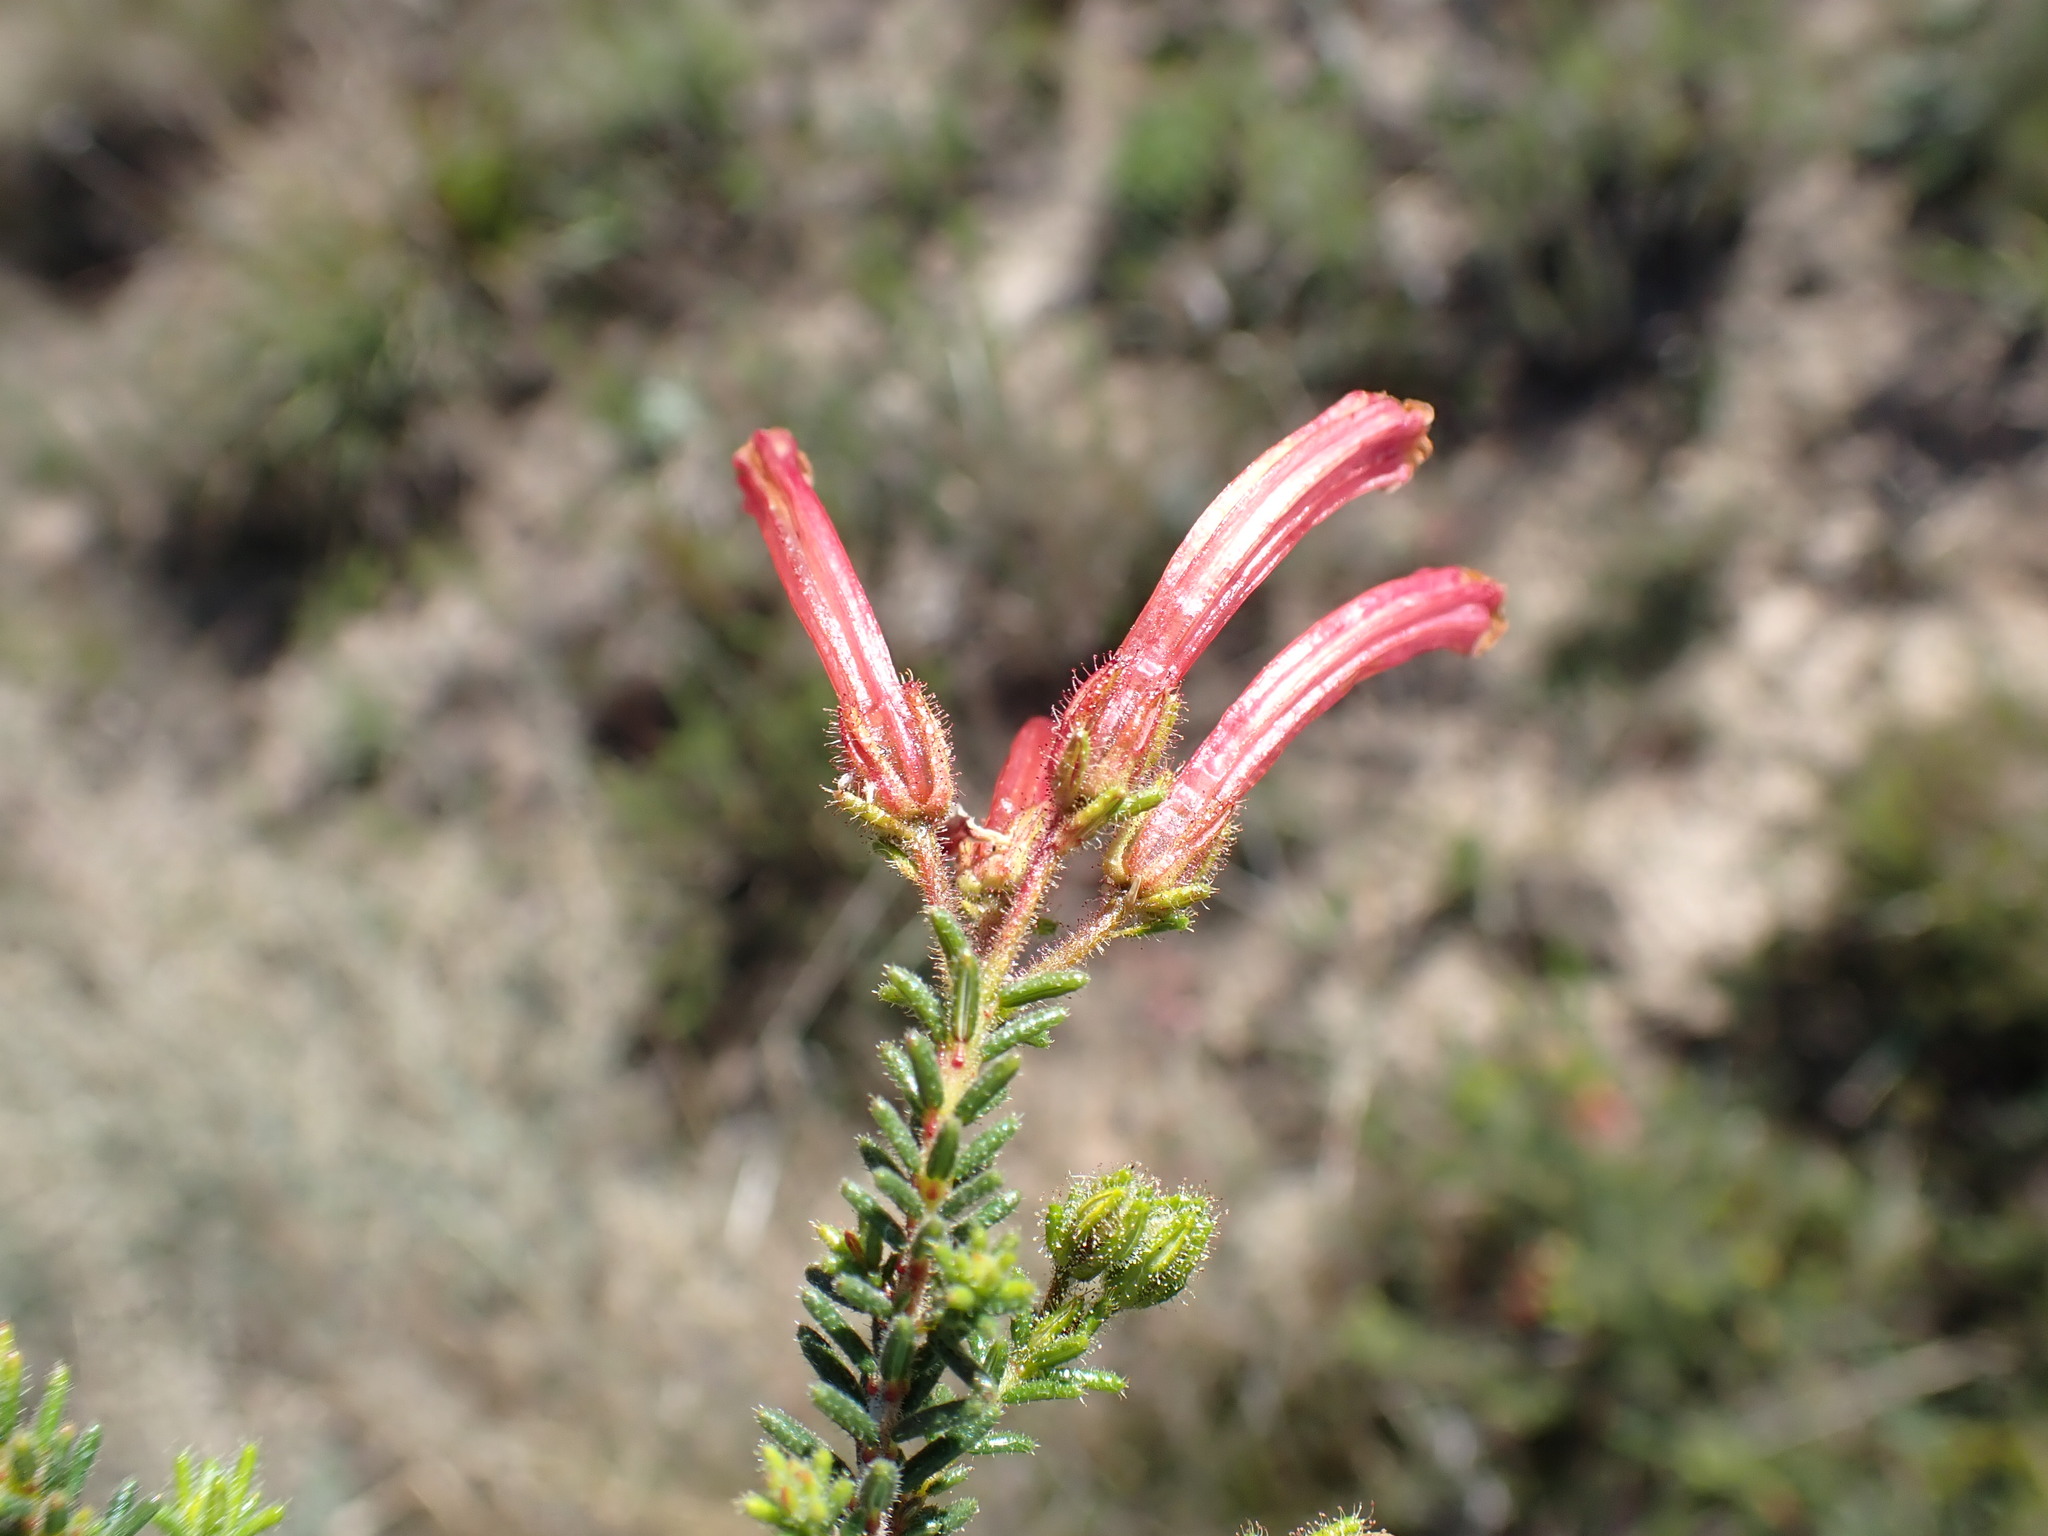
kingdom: Plantae
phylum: Tracheophyta
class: Magnoliopsida
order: Ericales
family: Ericaceae
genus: Erica
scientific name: Erica glandulosa
